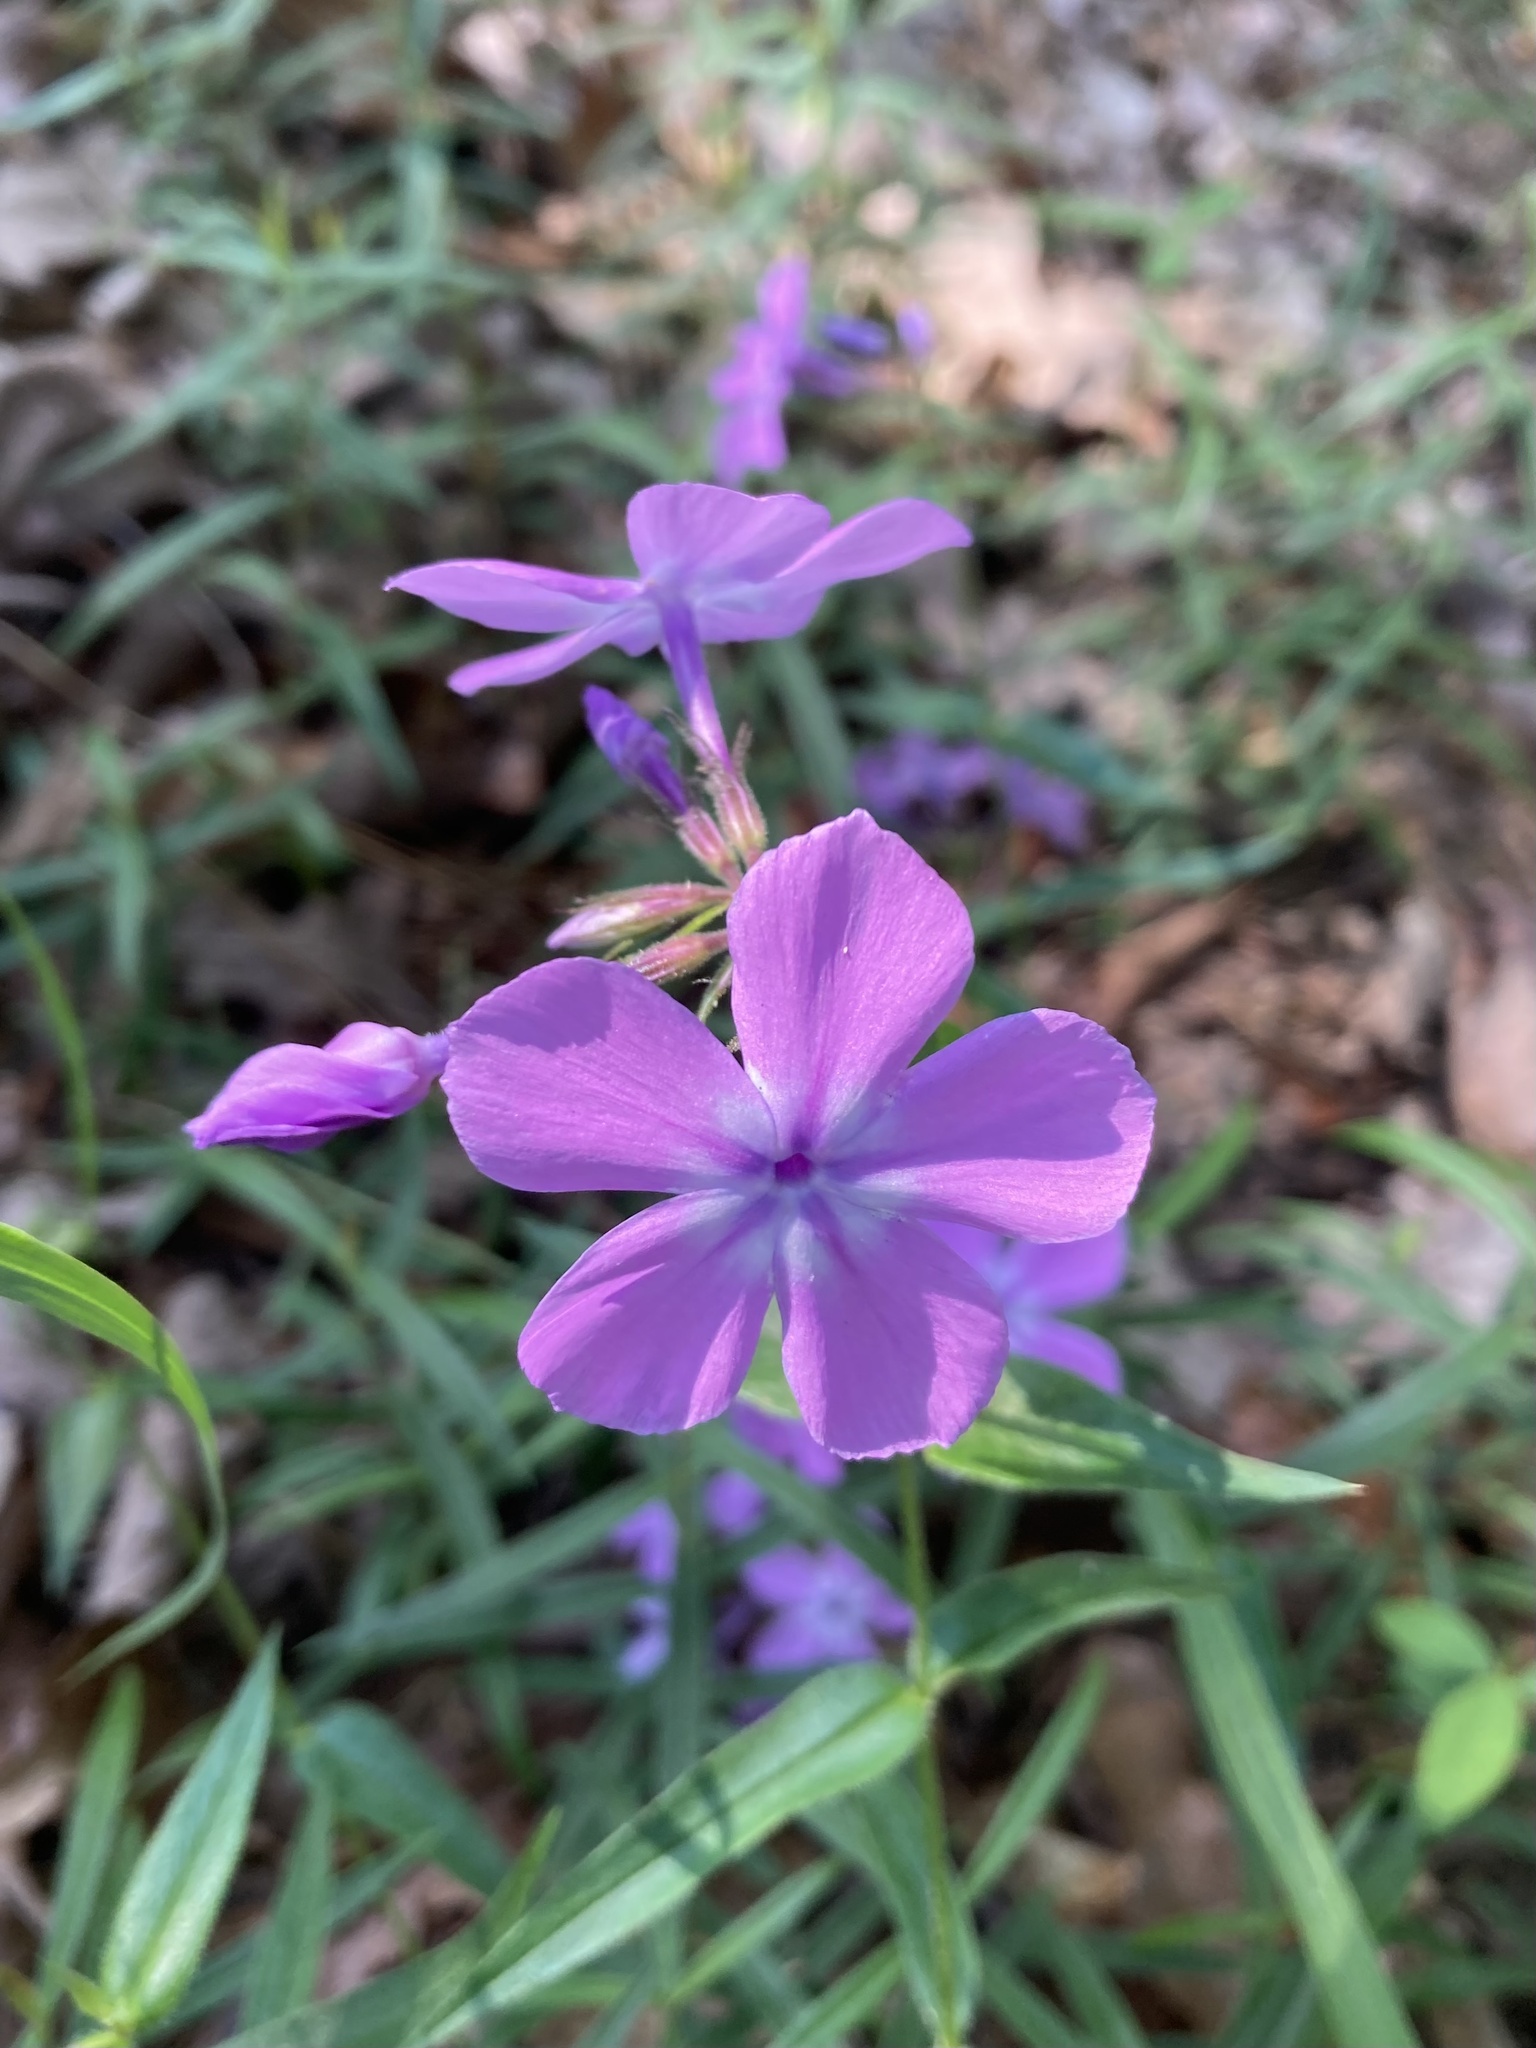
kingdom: Plantae
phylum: Tracheophyta
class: Magnoliopsida
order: Ericales
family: Polemoniaceae
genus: Phlox
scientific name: Phlox pilosa
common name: Prairie phlox
